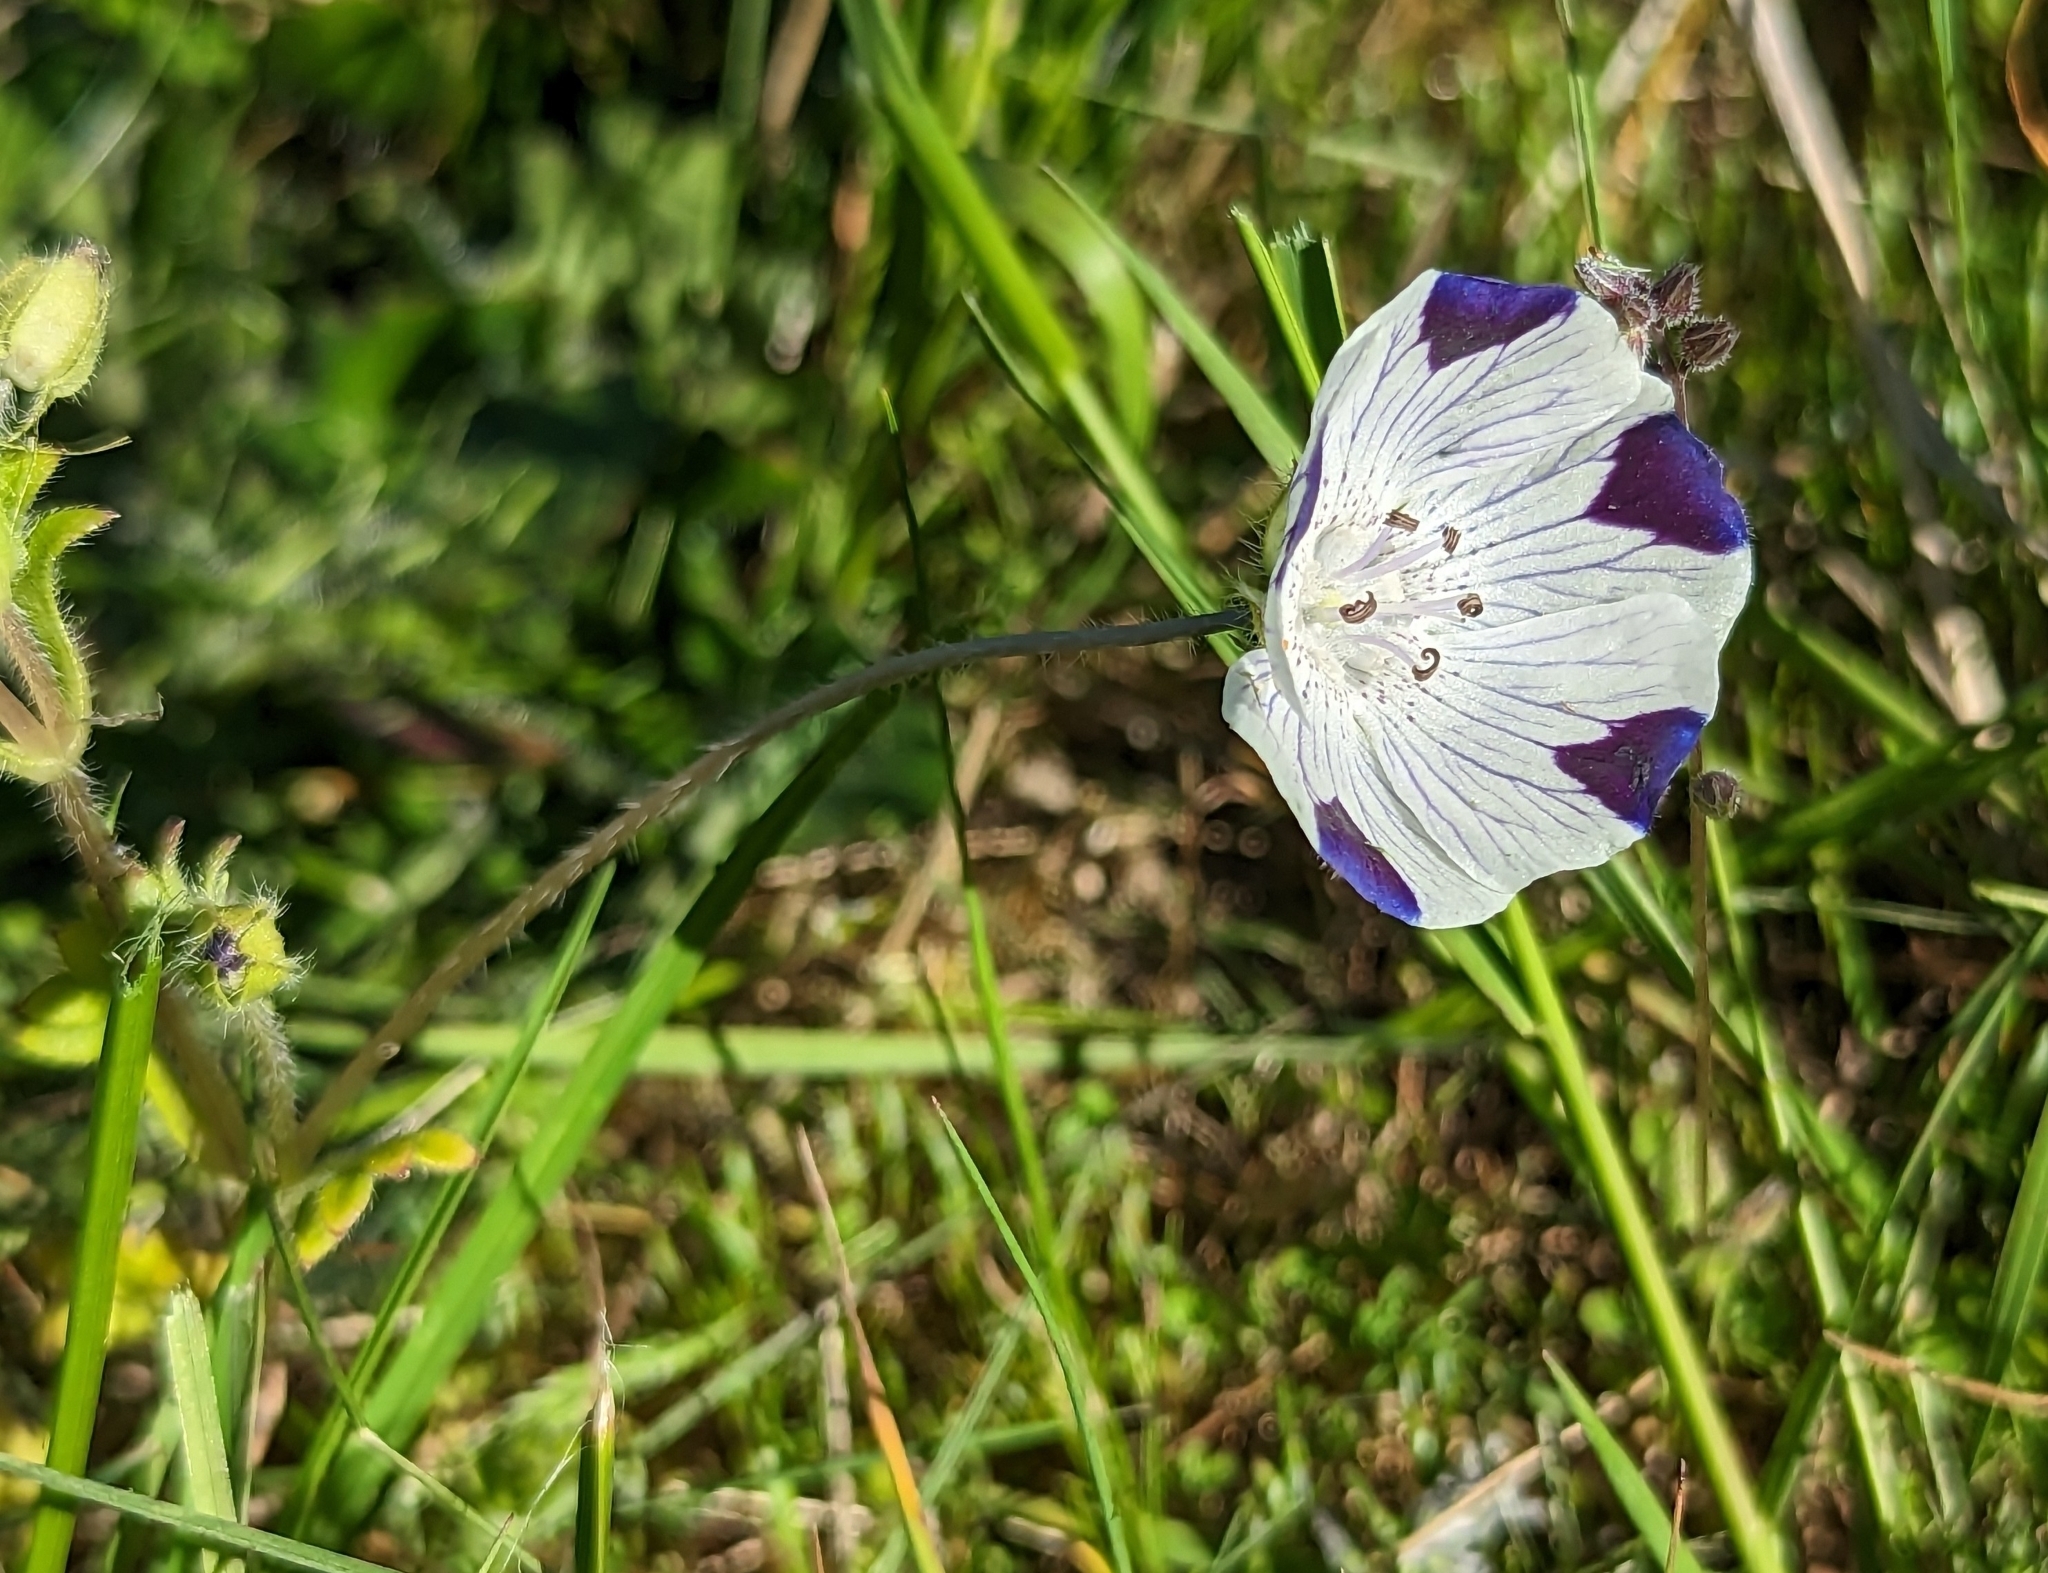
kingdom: Plantae
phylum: Tracheophyta
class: Magnoliopsida
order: Boraginales
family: Hydrophyllaceae
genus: Nemophila
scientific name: Nemophila maculata
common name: Fivespot
